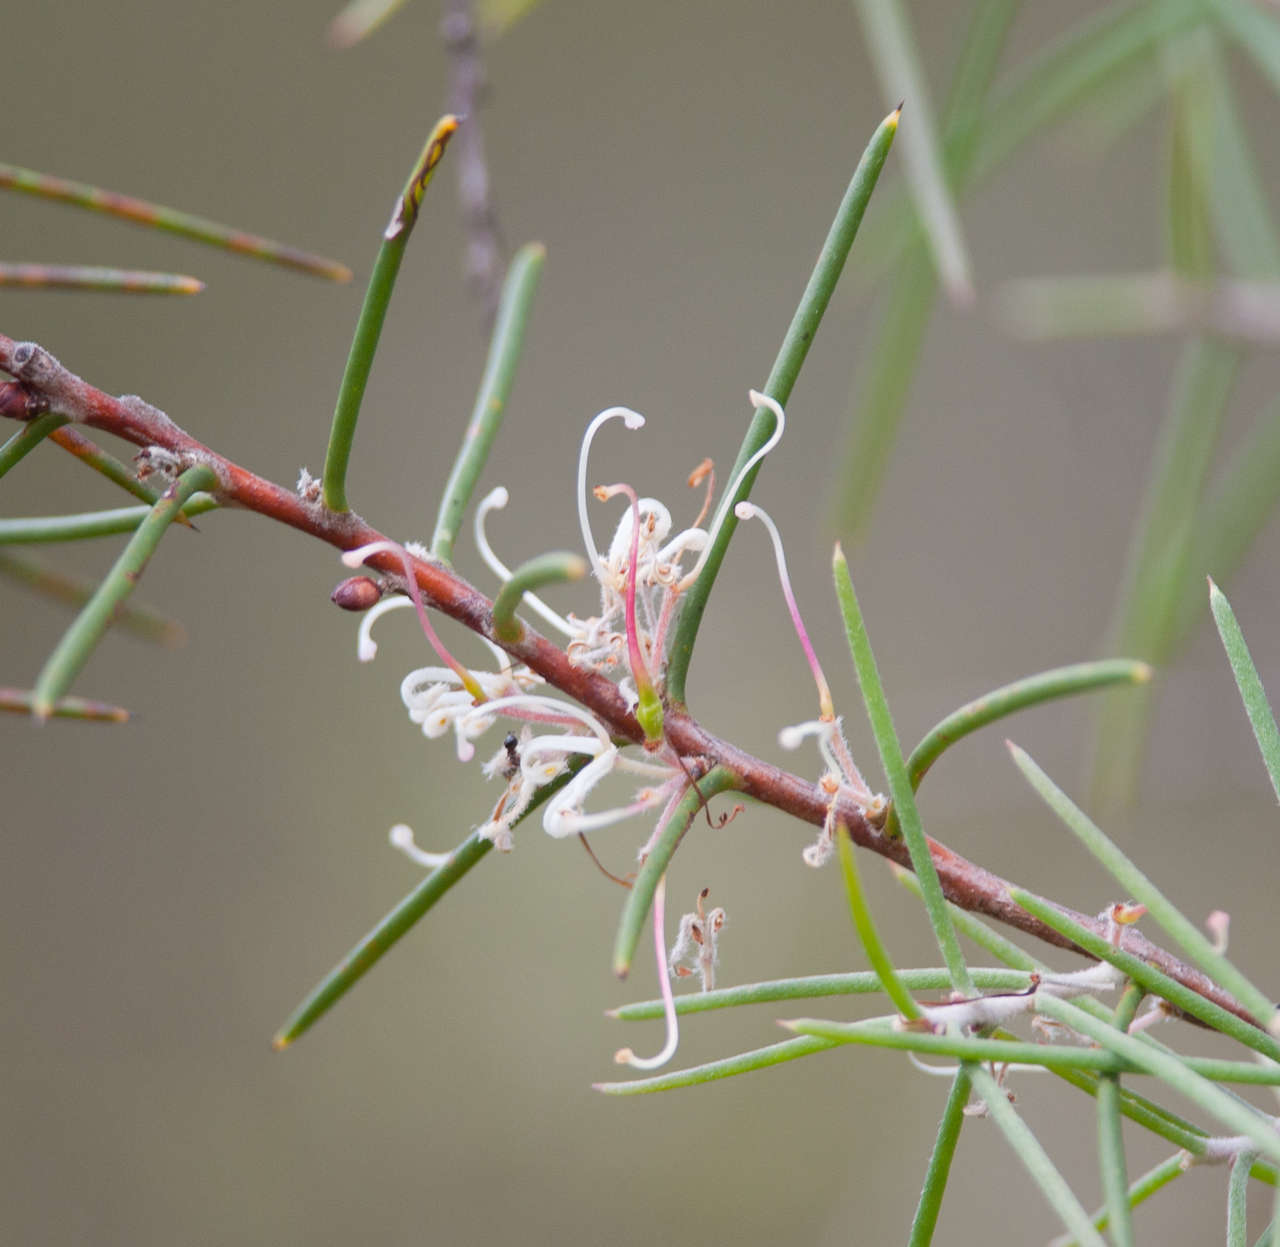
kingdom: Plantae
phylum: Tracheophyta
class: Magnoliopsida
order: Proteales
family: Proteaceae
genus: Hakea
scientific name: Hakea decurrens
